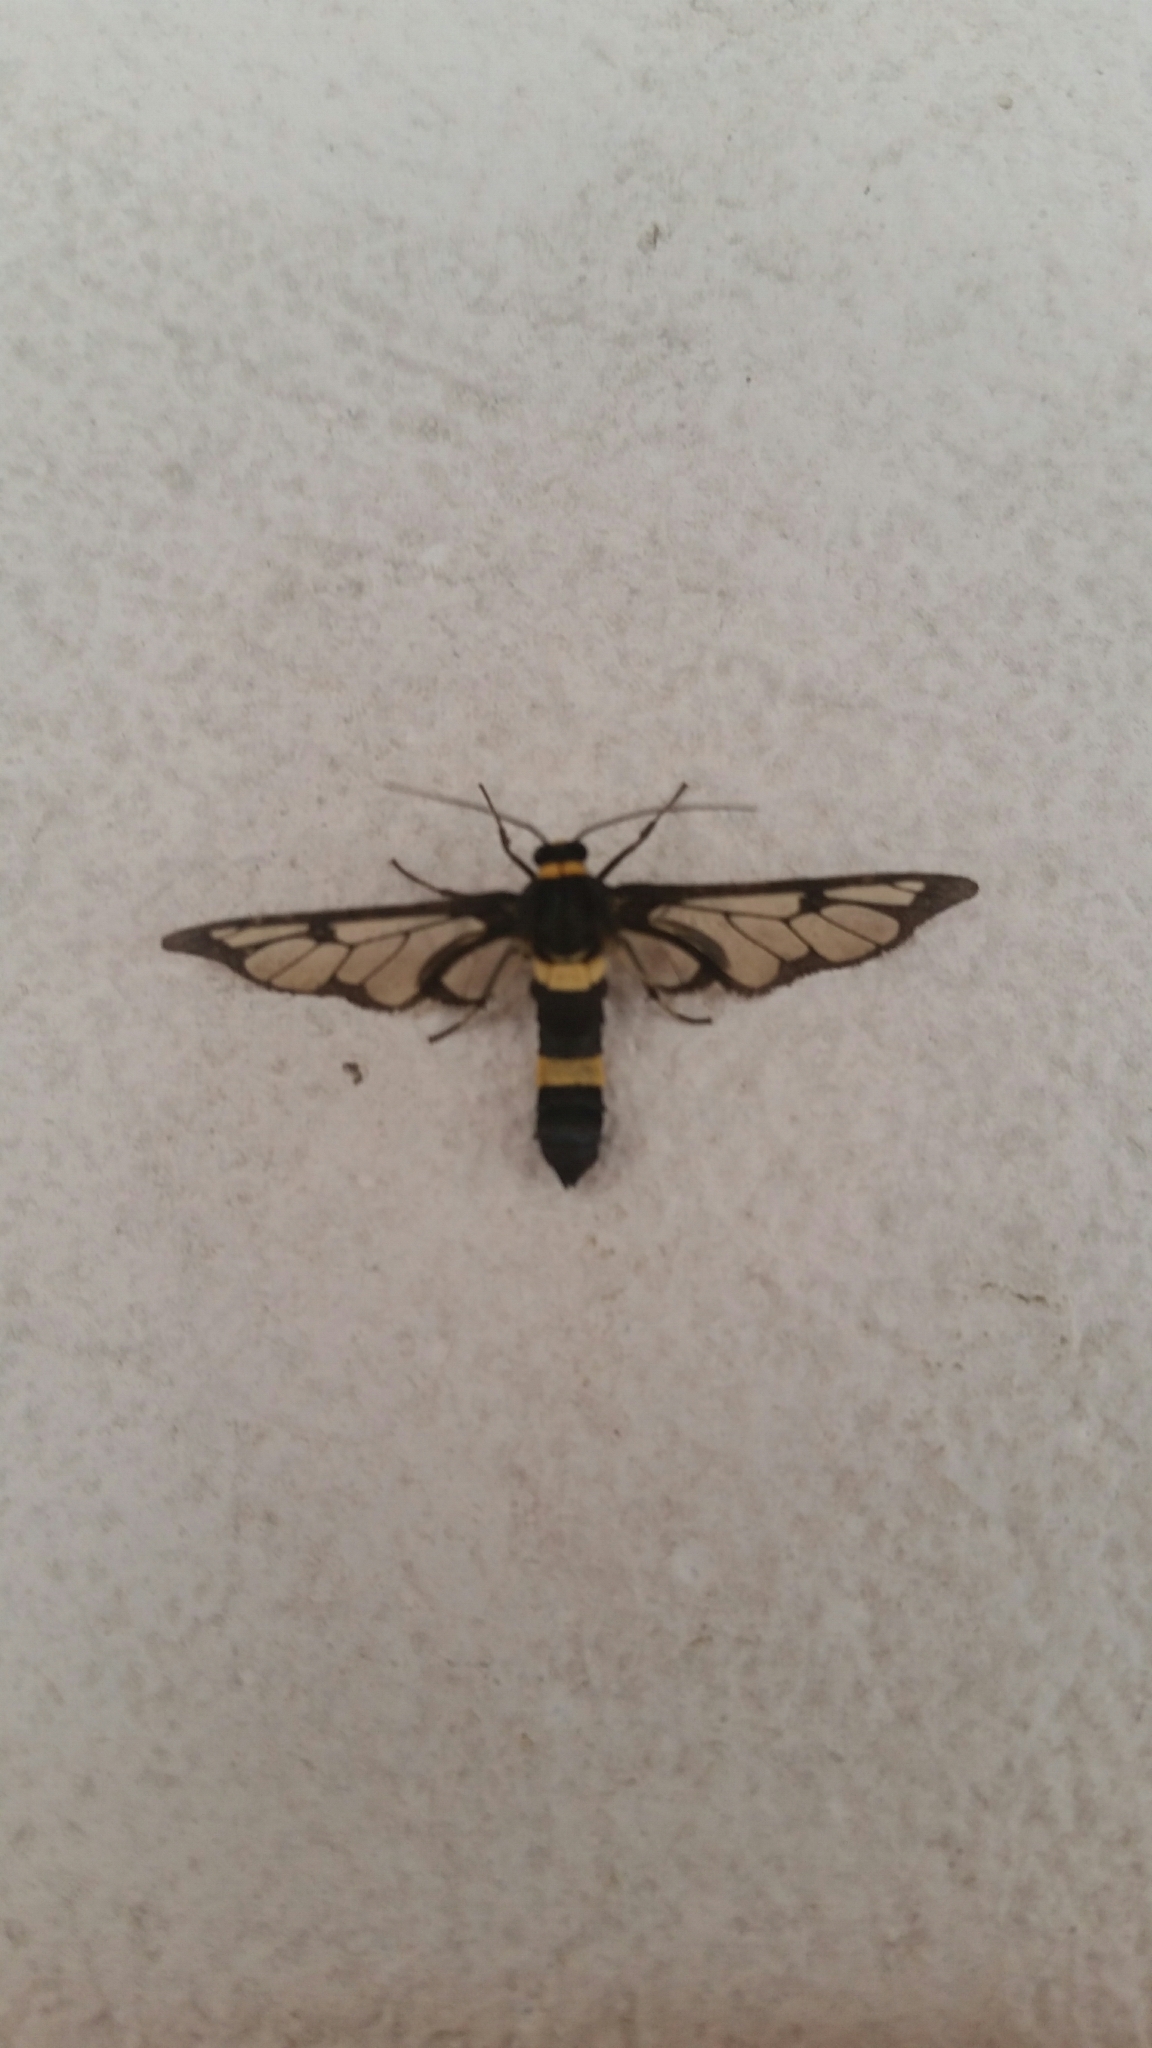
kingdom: Animalia
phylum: Arthropoda
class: Insecta
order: Lepidoptera
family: Erebidae
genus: Syntomoides
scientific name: Syntomoides imaon
